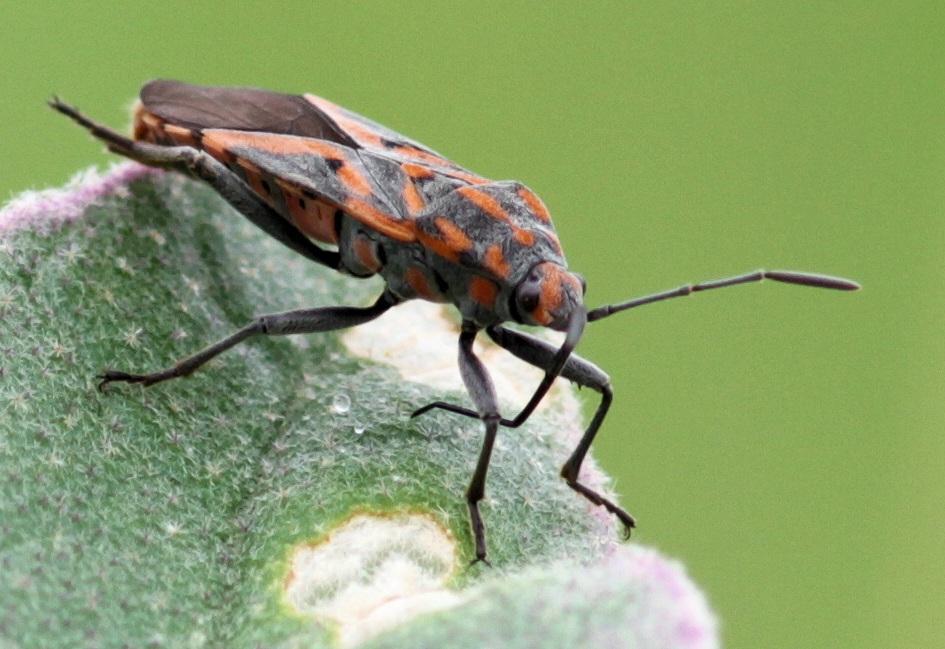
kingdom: Animalia
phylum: Arthropoda
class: Insecta
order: Hemiptera
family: Lygaeidae
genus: Spilostethus
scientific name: Spilostethus furcula
